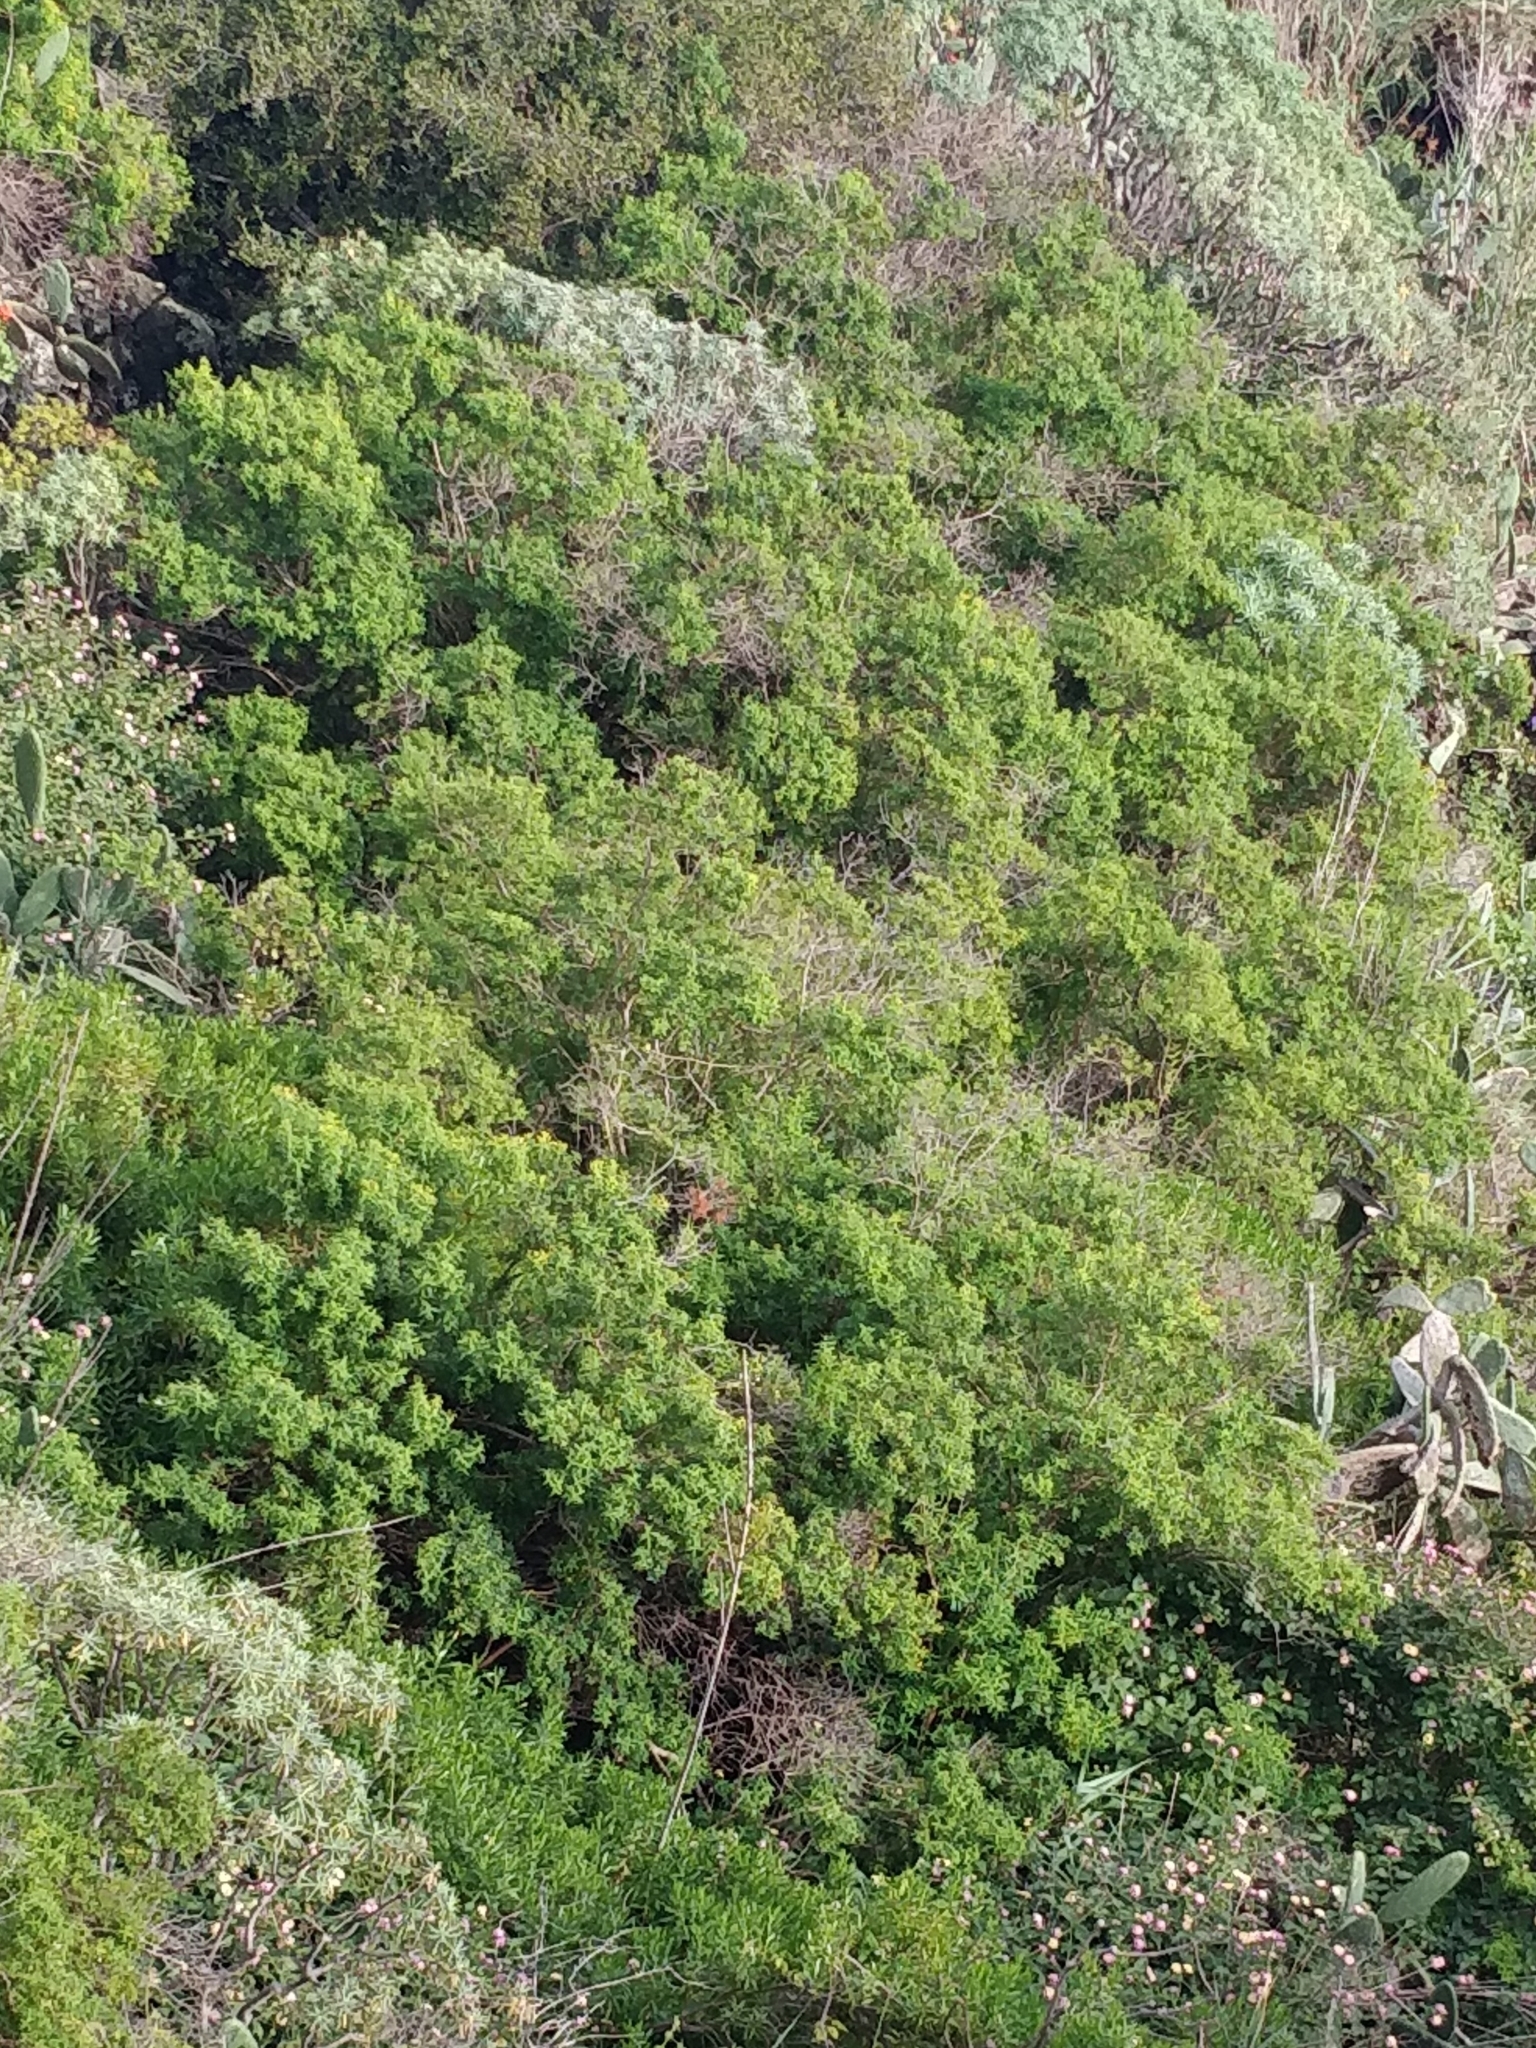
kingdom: Plantae
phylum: Tracheophyta
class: Magnoliopsida
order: Malpighiales
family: Hypericaceae
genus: Hypericum
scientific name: Hypericum canariense
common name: Canary island st. johnswort
